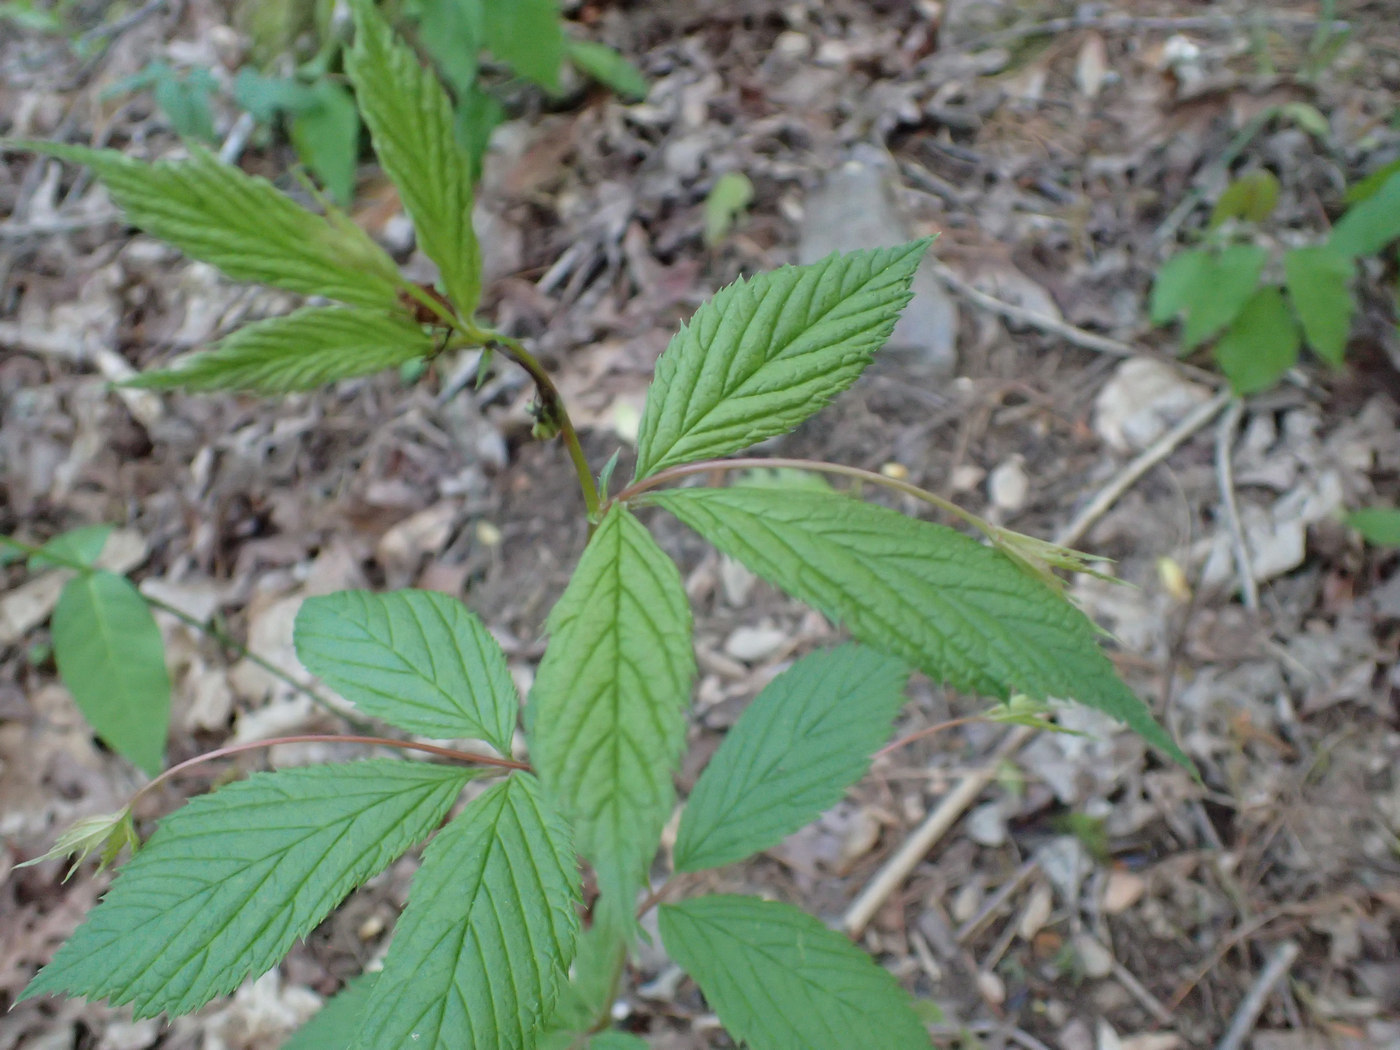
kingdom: Plantae
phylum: Tracheophyta
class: Magnoliopsida
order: Rosales
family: Rosaceae
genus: Gillenia
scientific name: Gillenia trifoliata
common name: Bowman's-root
